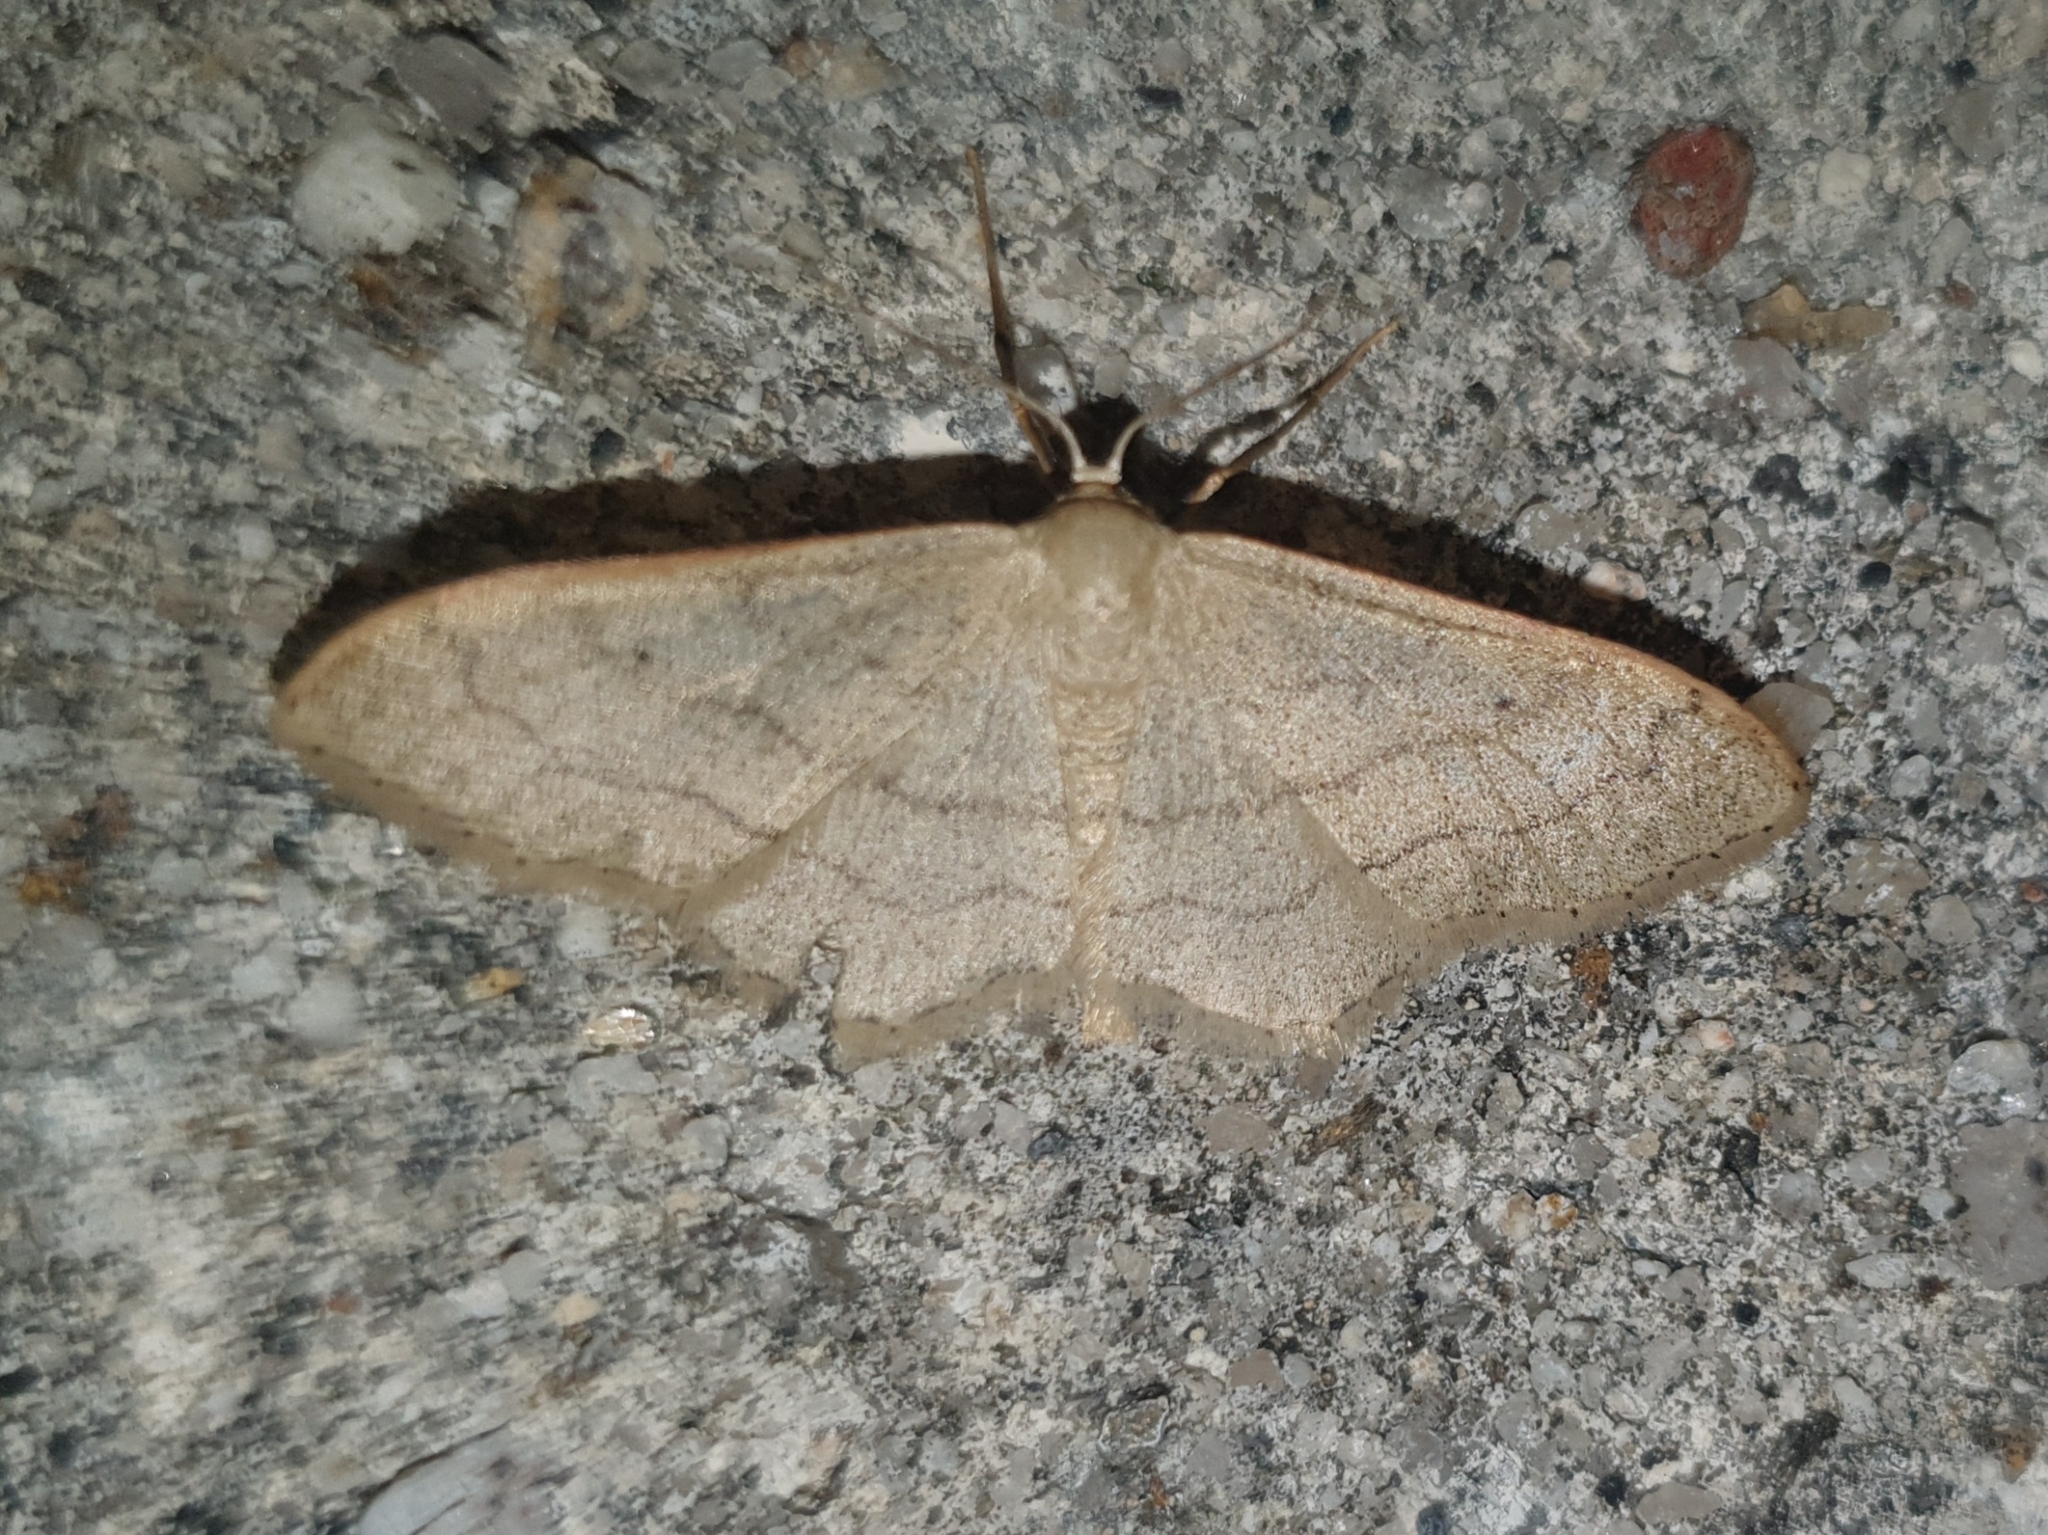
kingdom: Animalia
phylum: Arthropoda
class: Insecta
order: Lepidoptera
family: Geometridae
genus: Idaea
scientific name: Idaea aversata
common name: Riband wave
